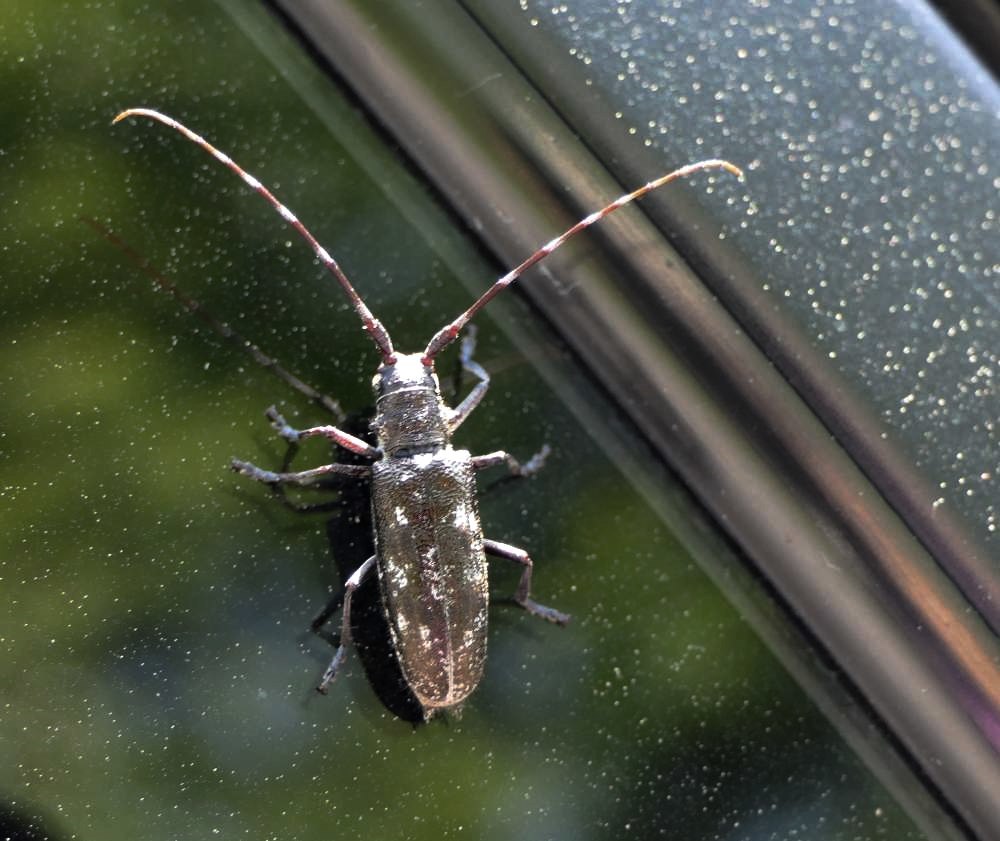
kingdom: Animalia
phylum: Arthropoda
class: Insecta
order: Coleoptera
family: Cerambycidae
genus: Monochamus
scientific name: Monochamus scutellatus
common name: White-spotted sawyer beetle
